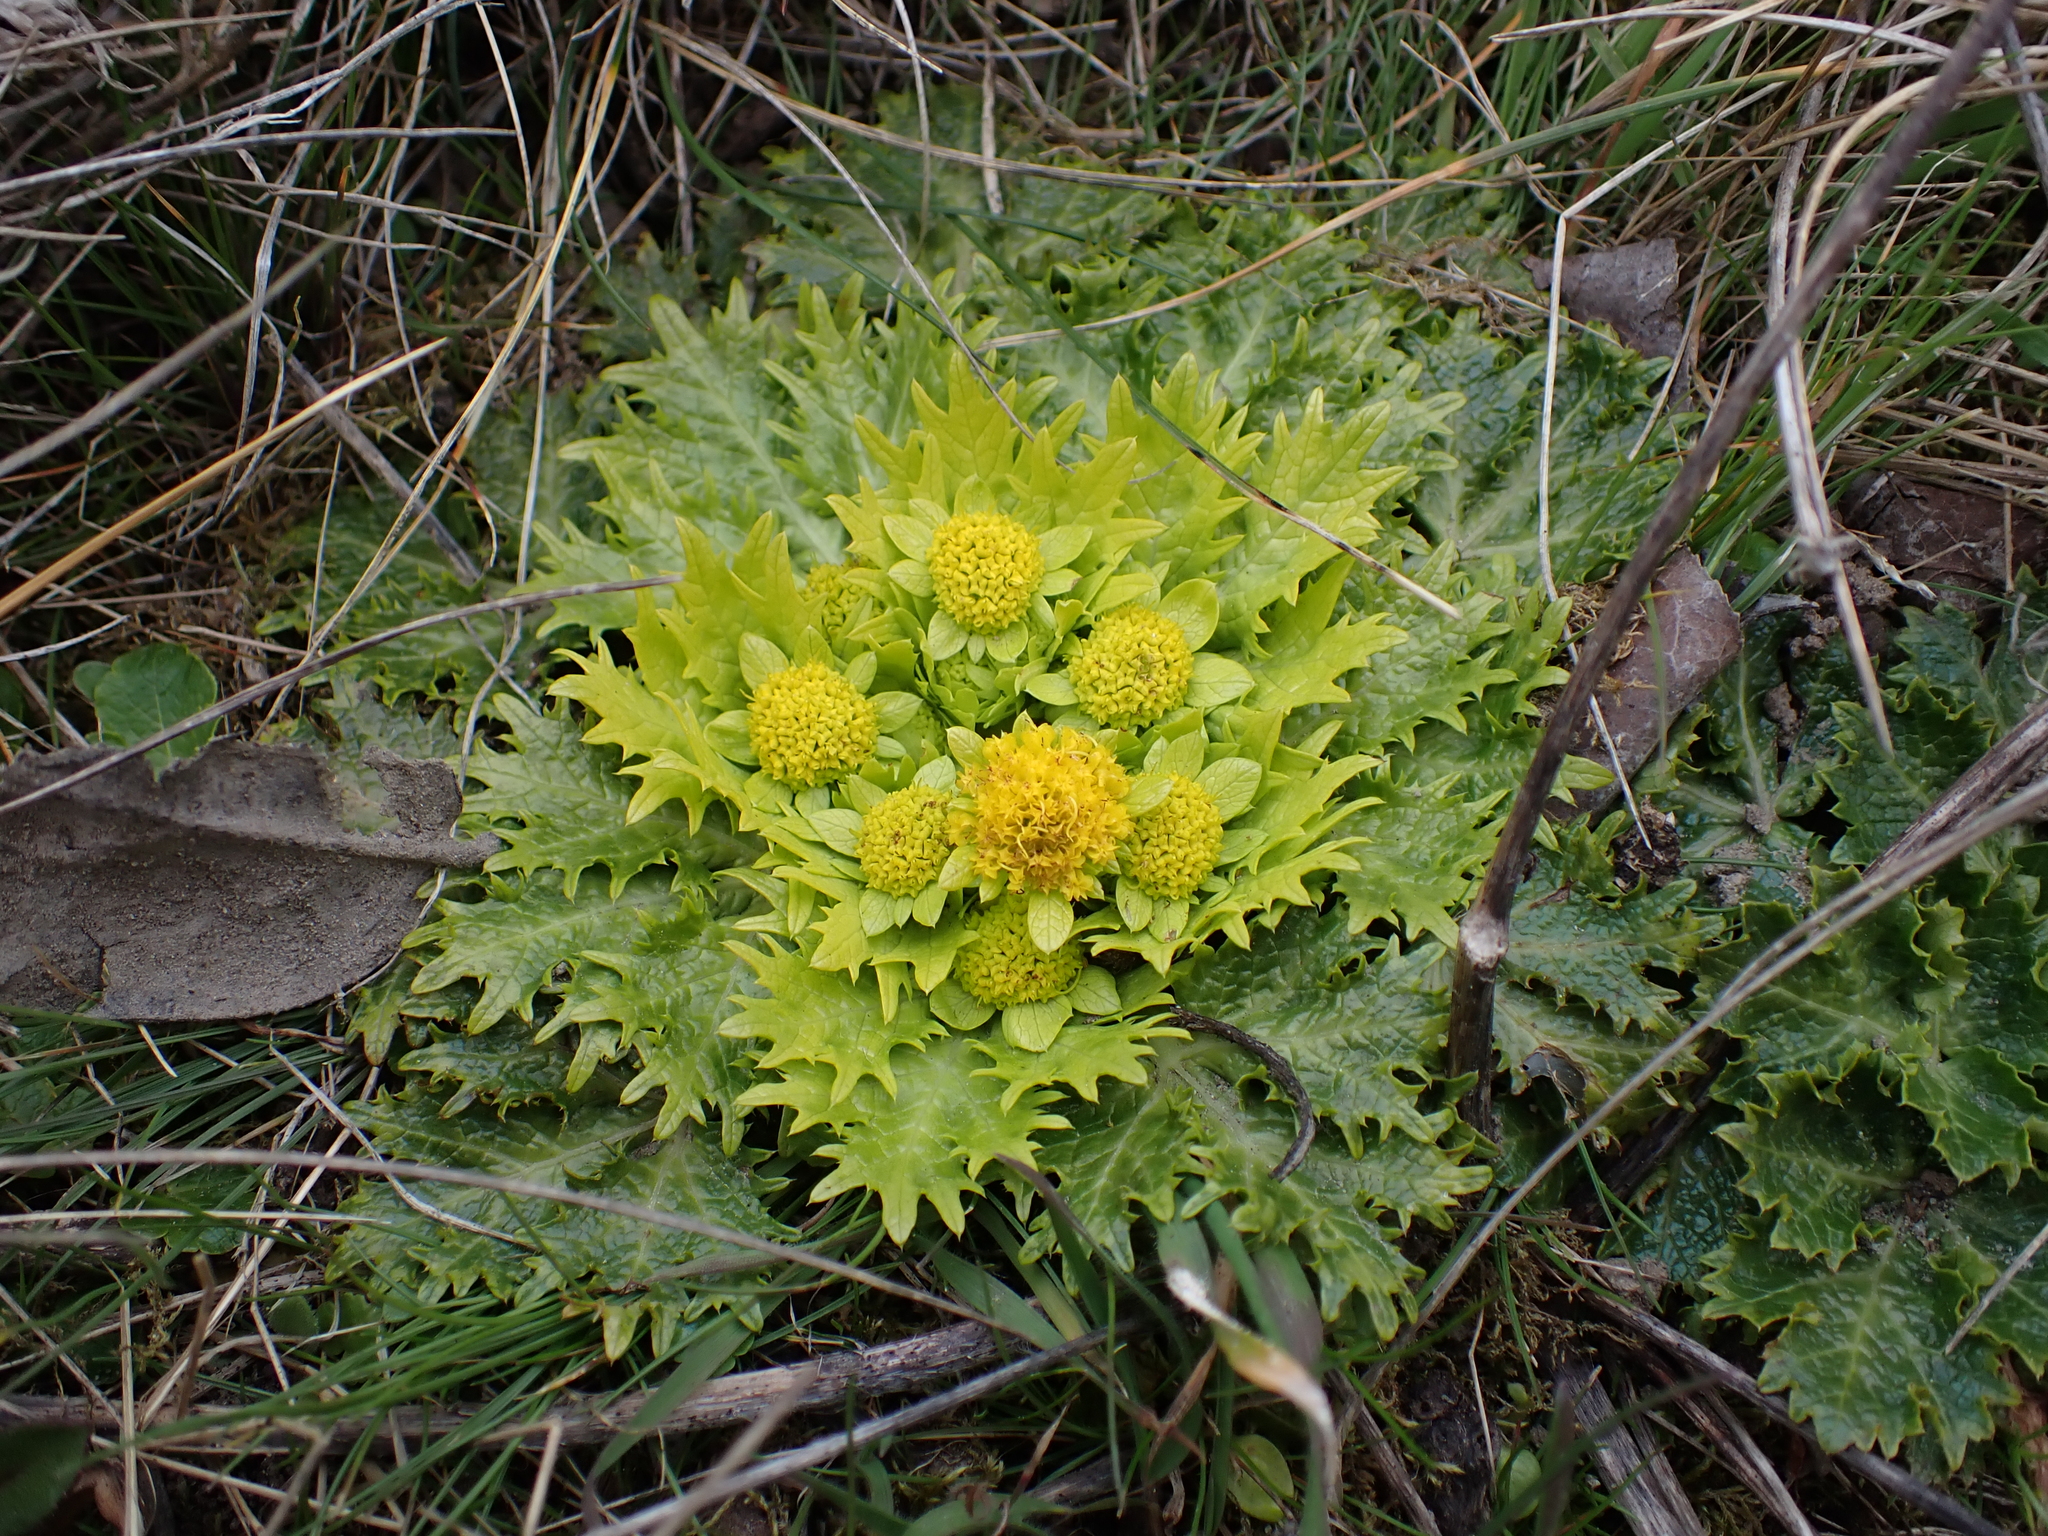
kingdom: Plantae
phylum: Tracheophyta
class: Magnoliopsida
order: Apiales
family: Apiaceae
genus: Sanicula
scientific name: Sanicula arctopoides
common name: Footsteps-of-spring
